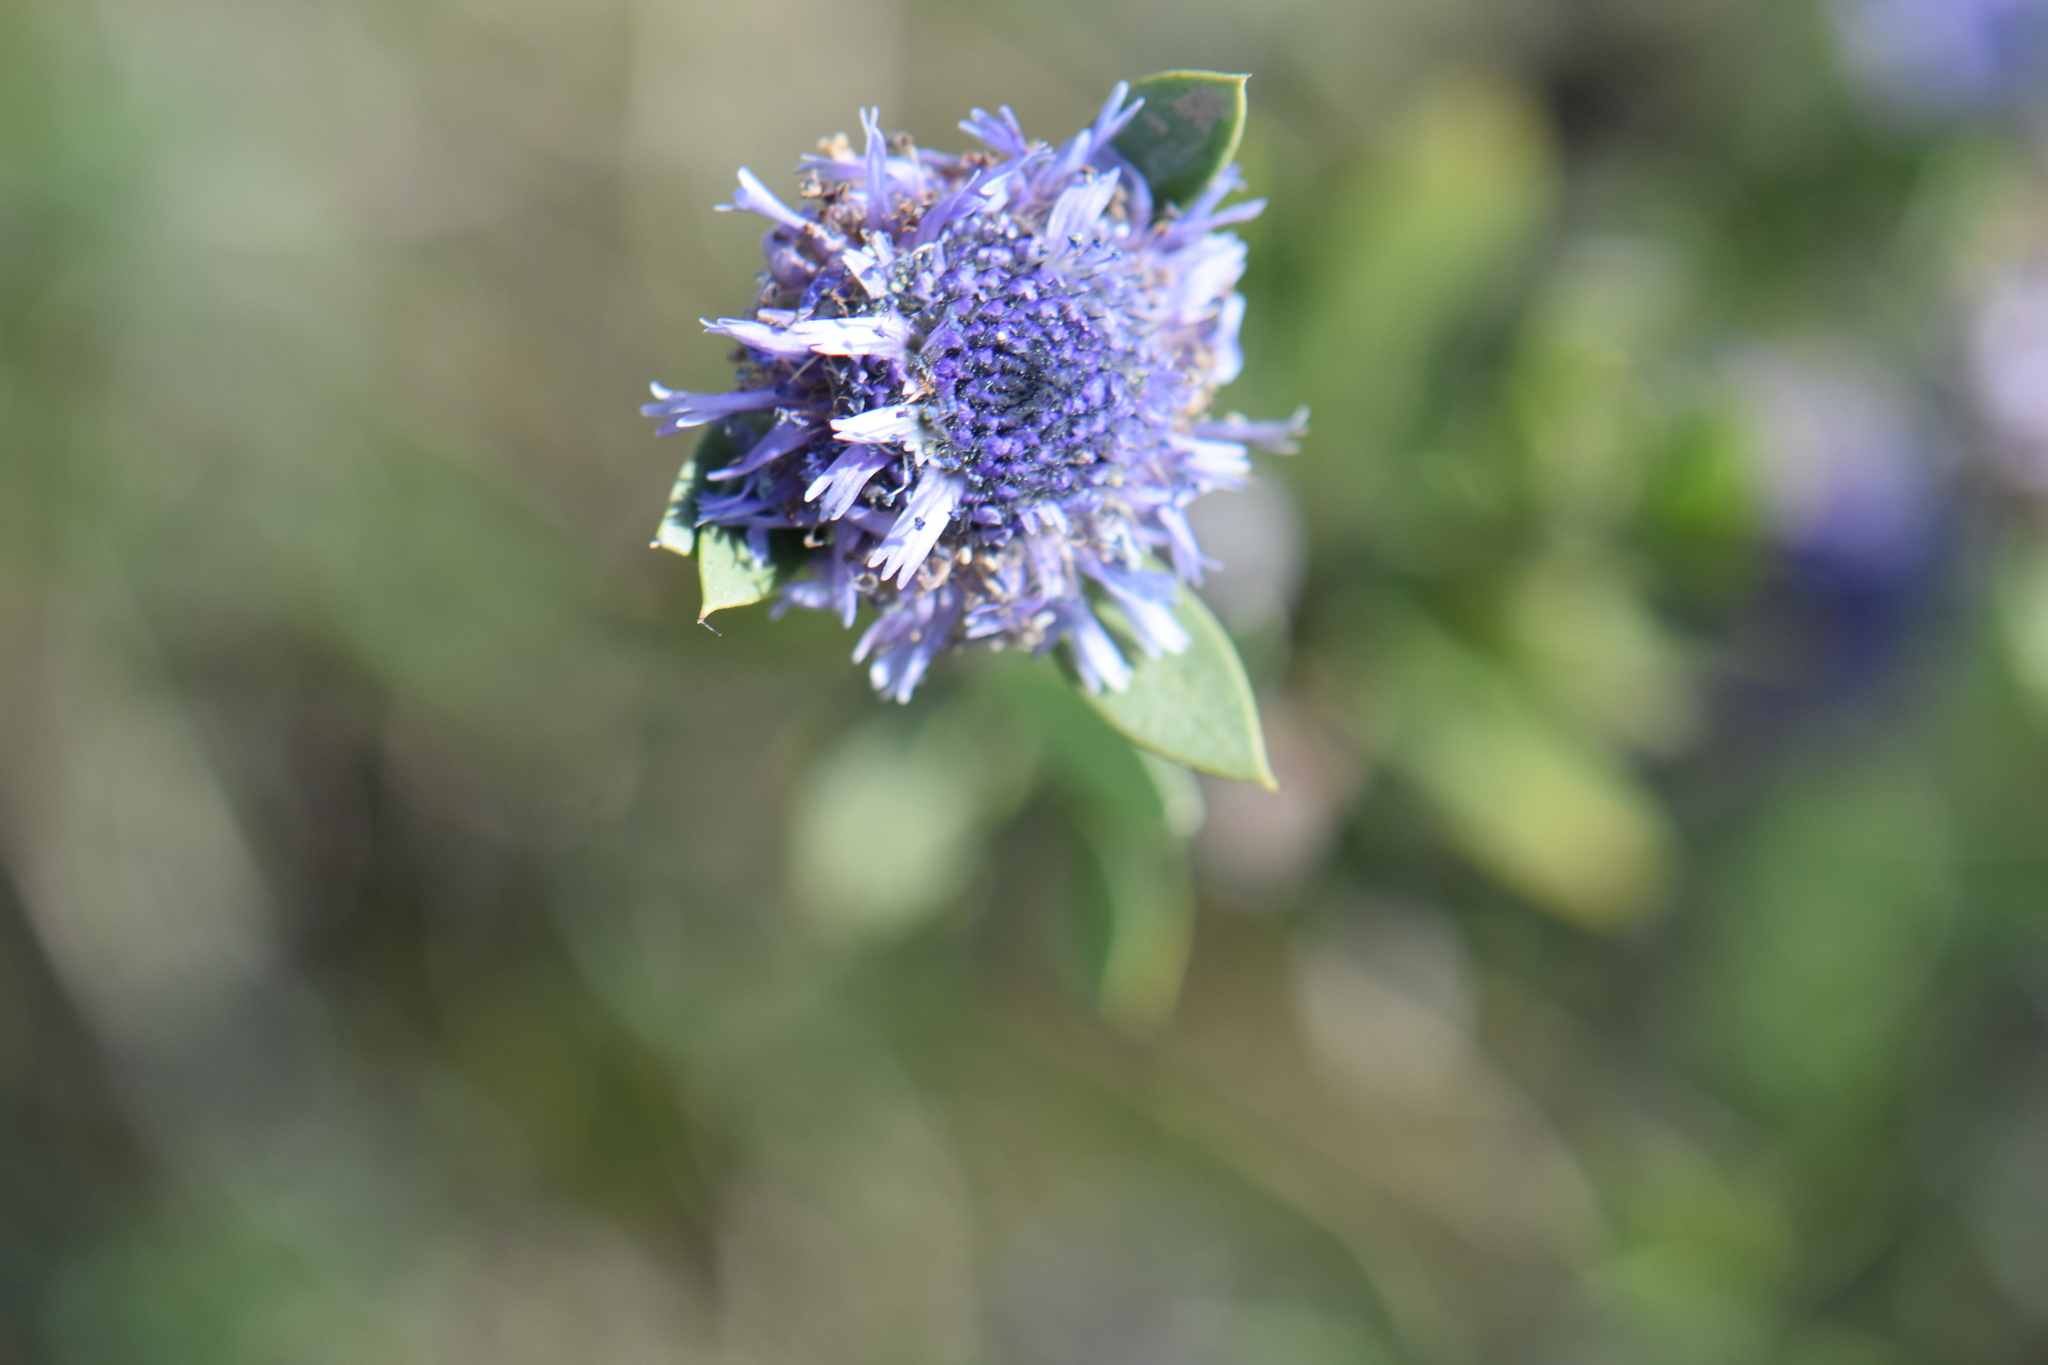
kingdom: Plantae
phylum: Tracheophyta
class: Magnoliopsida
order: Lamiales
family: Plantaginaceae
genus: Globularia
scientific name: Globularia alypum
